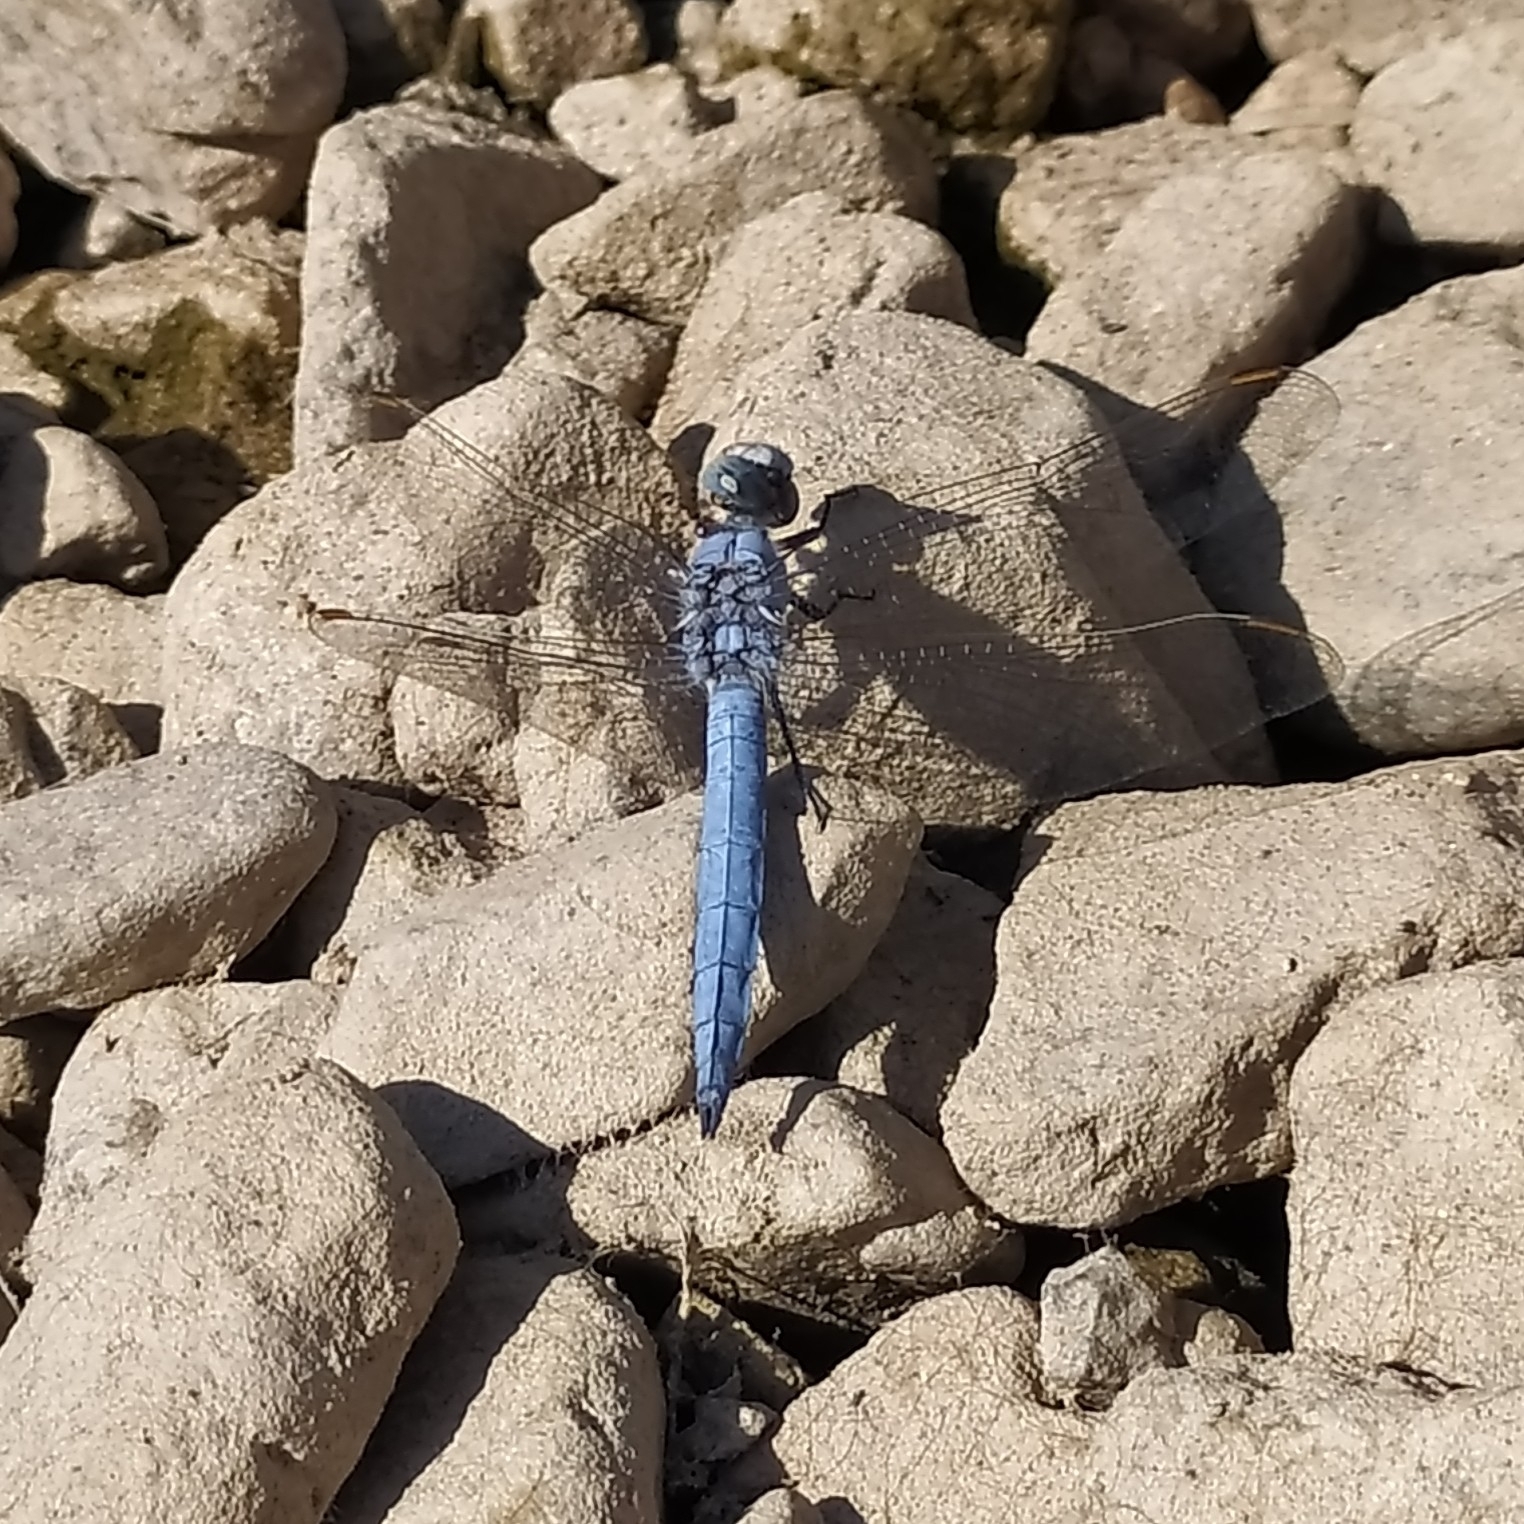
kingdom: Animalia
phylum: Arthropoda
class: Insecta
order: Odonata
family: Libellulidae
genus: Orthetrum
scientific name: Orthetrum brunneum
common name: Southern skimmer
